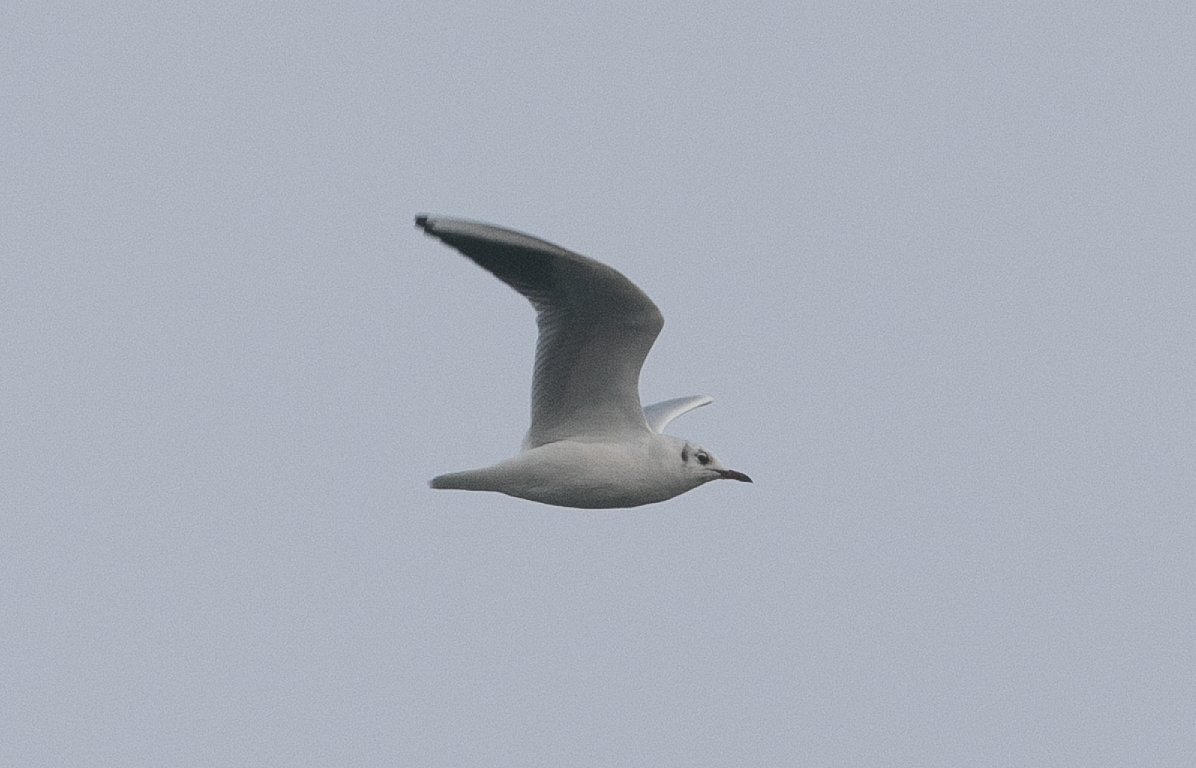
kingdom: Animalia
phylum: Chordata
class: Aves
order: Charadriiformes
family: Laridae
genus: Chroicocephalus
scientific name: Chroicocephalus ridibundus
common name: Black-headed gull
